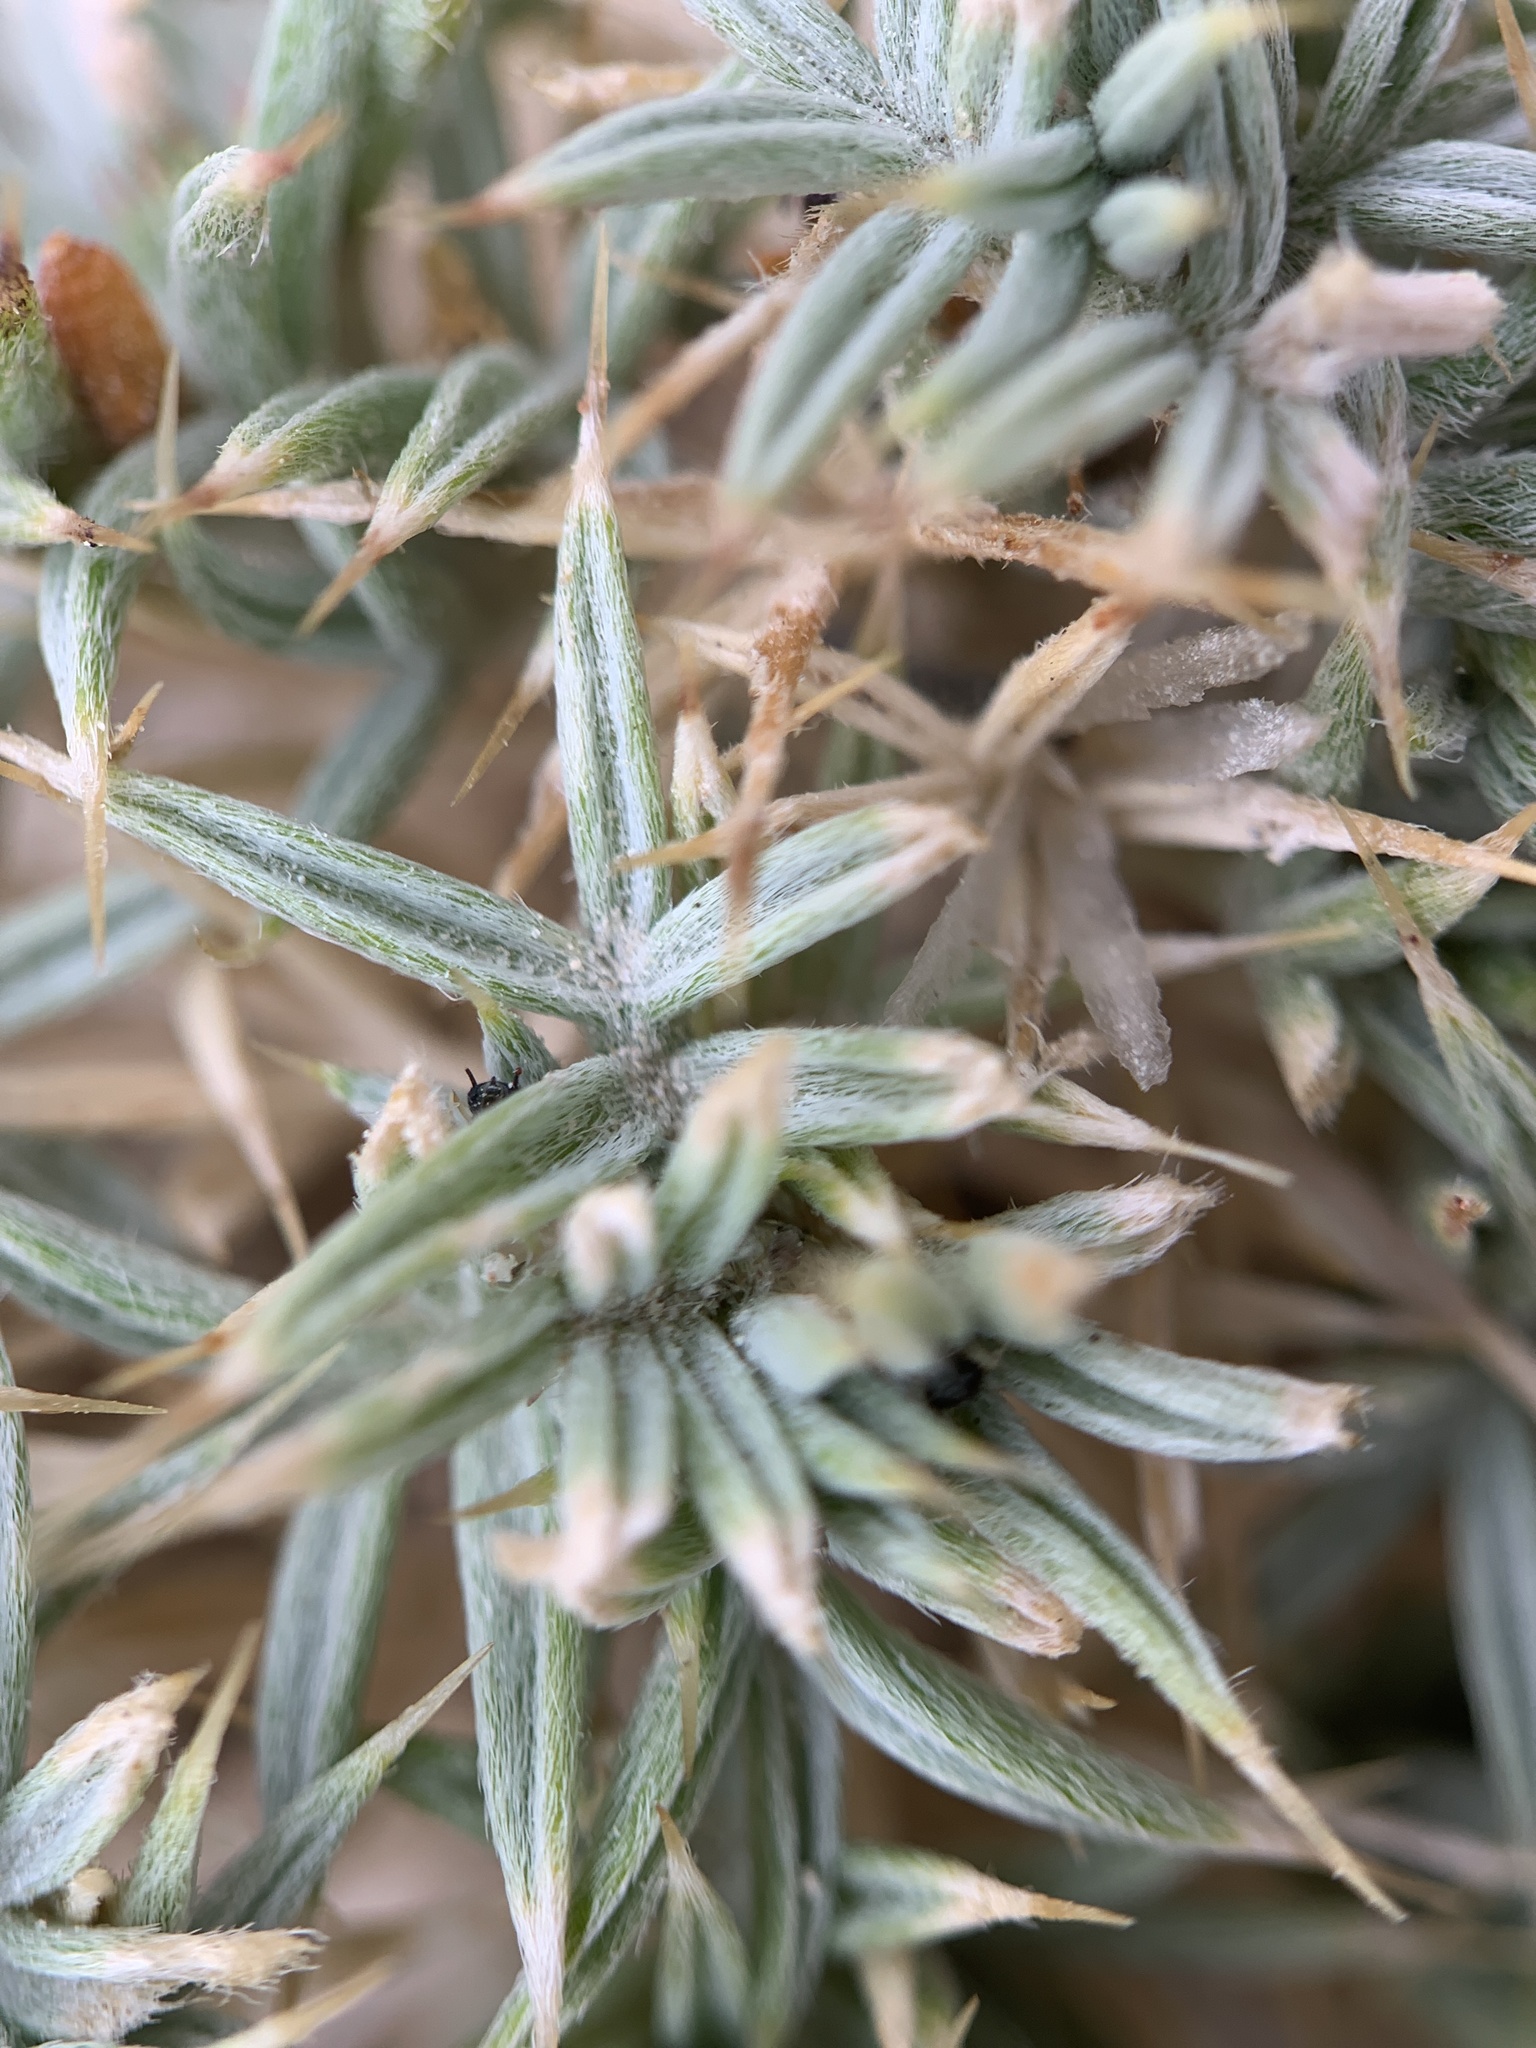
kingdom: Plantae
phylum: Tracheophyta
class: Magnoliopsida
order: Fabales
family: Fabaceae
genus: Astragalus
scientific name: Astragalus kentrophyta
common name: Prickly milk-vetch
